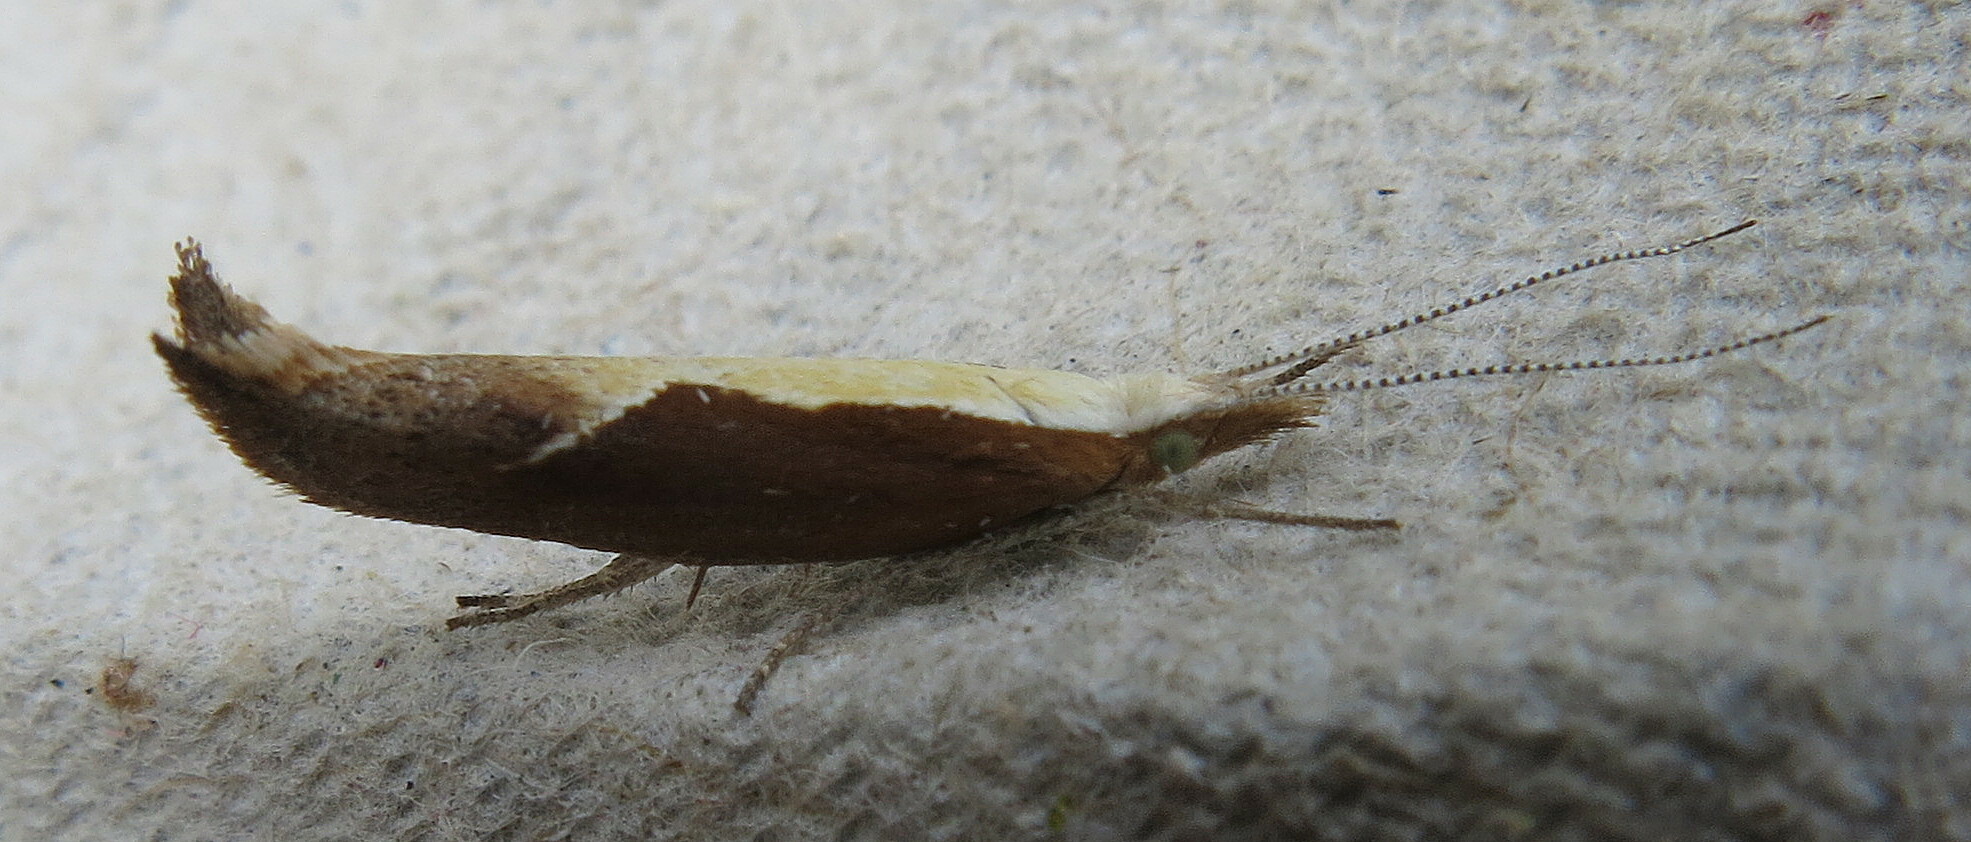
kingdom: Animalia
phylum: Arthropoda
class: Insecta
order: Lepidoptera
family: Ypsolophidae
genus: Ypsolopha
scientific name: Ypsolopha dentella
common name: Honeysuckle moth
